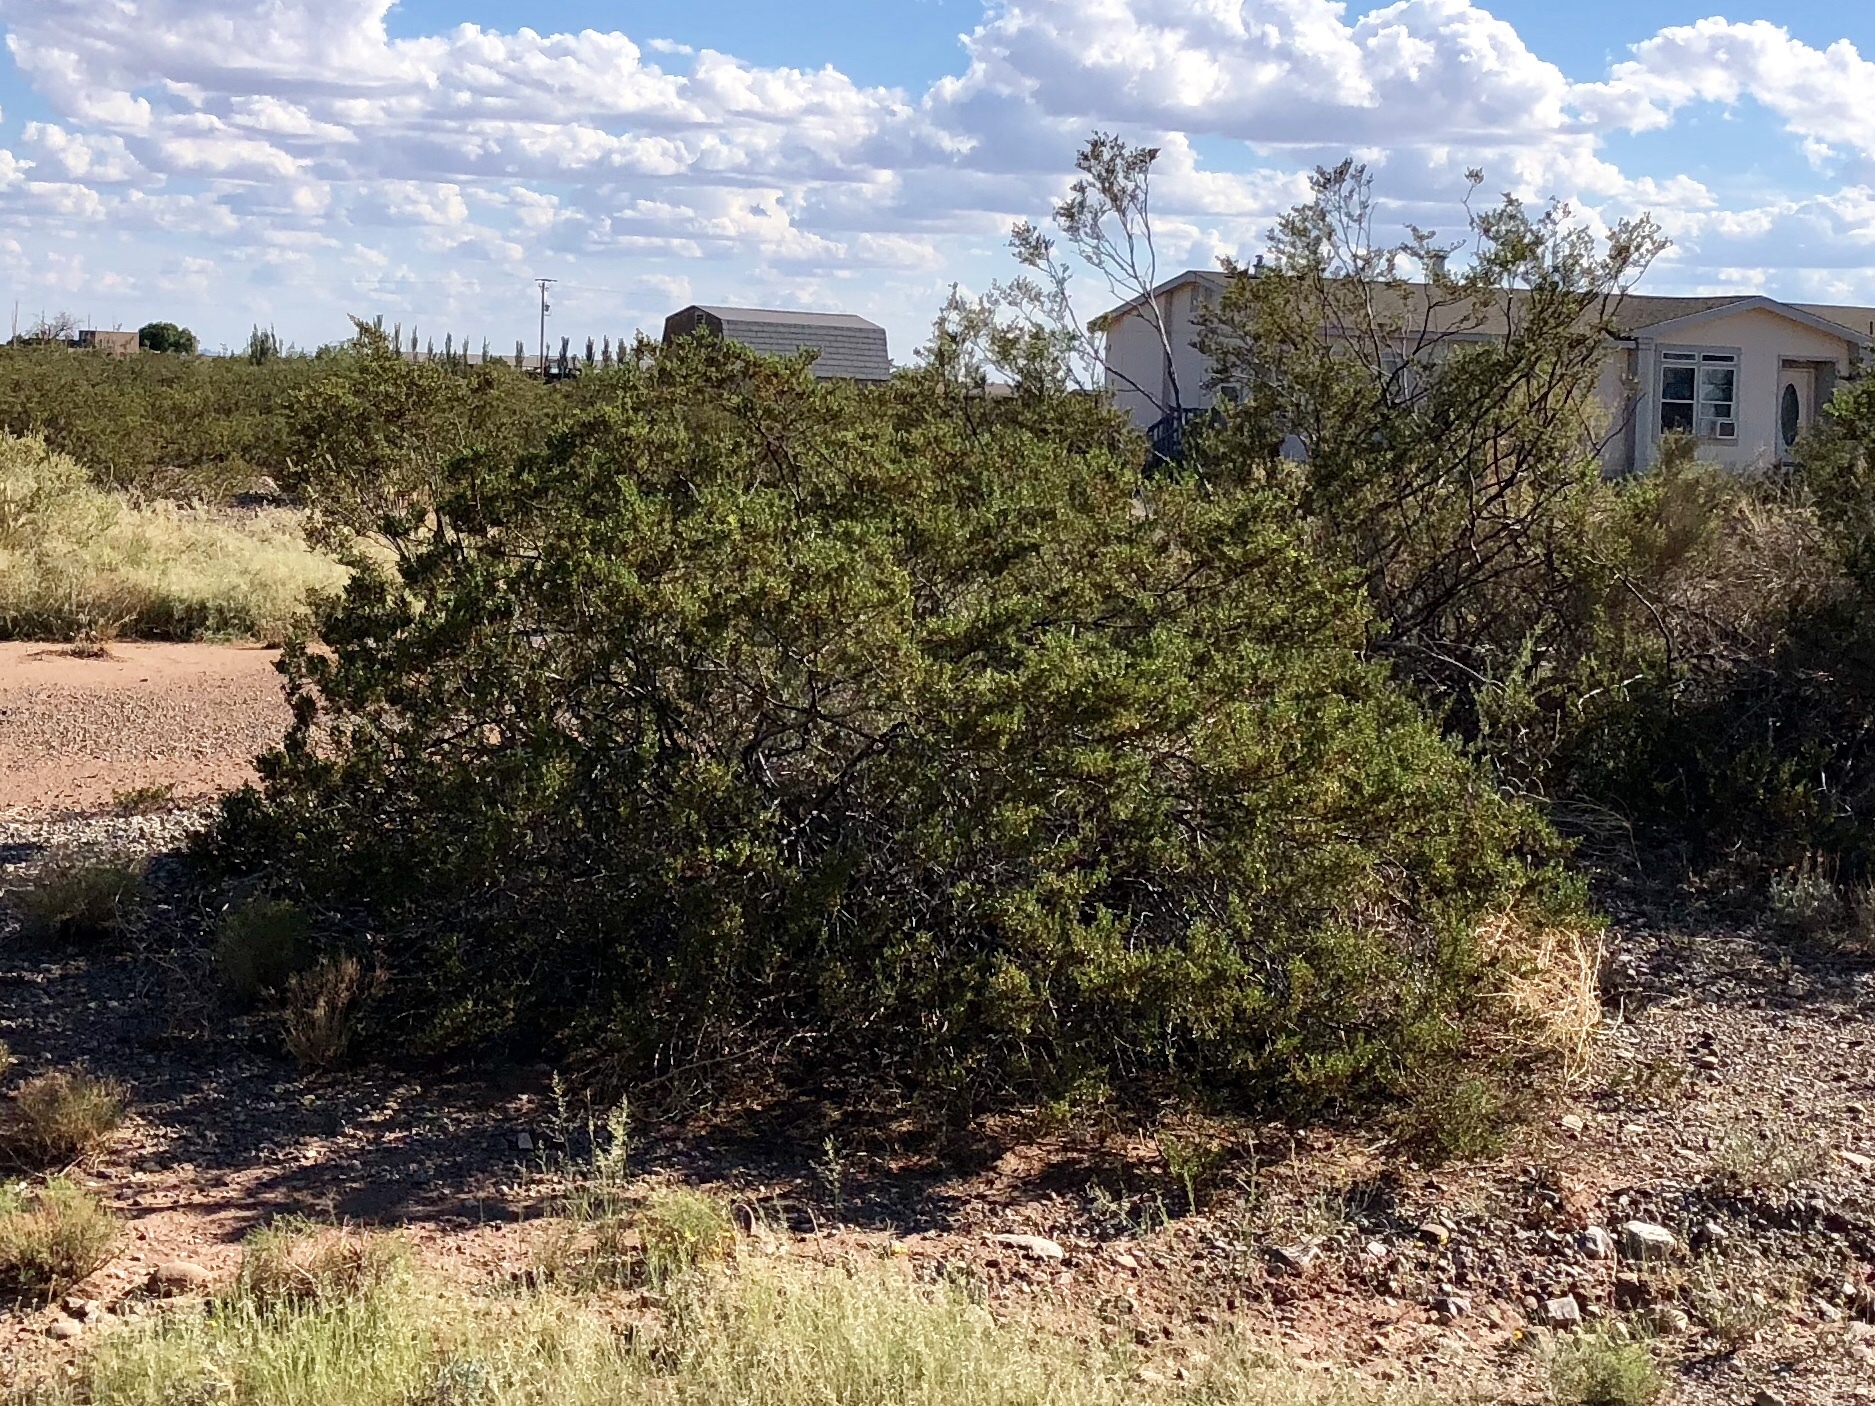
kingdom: Plantae
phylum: Tracheophyta
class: Magnoliopsida
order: Zygophyllales
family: Zygophyllaceae
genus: Larrea
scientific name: Larrea tridentata
